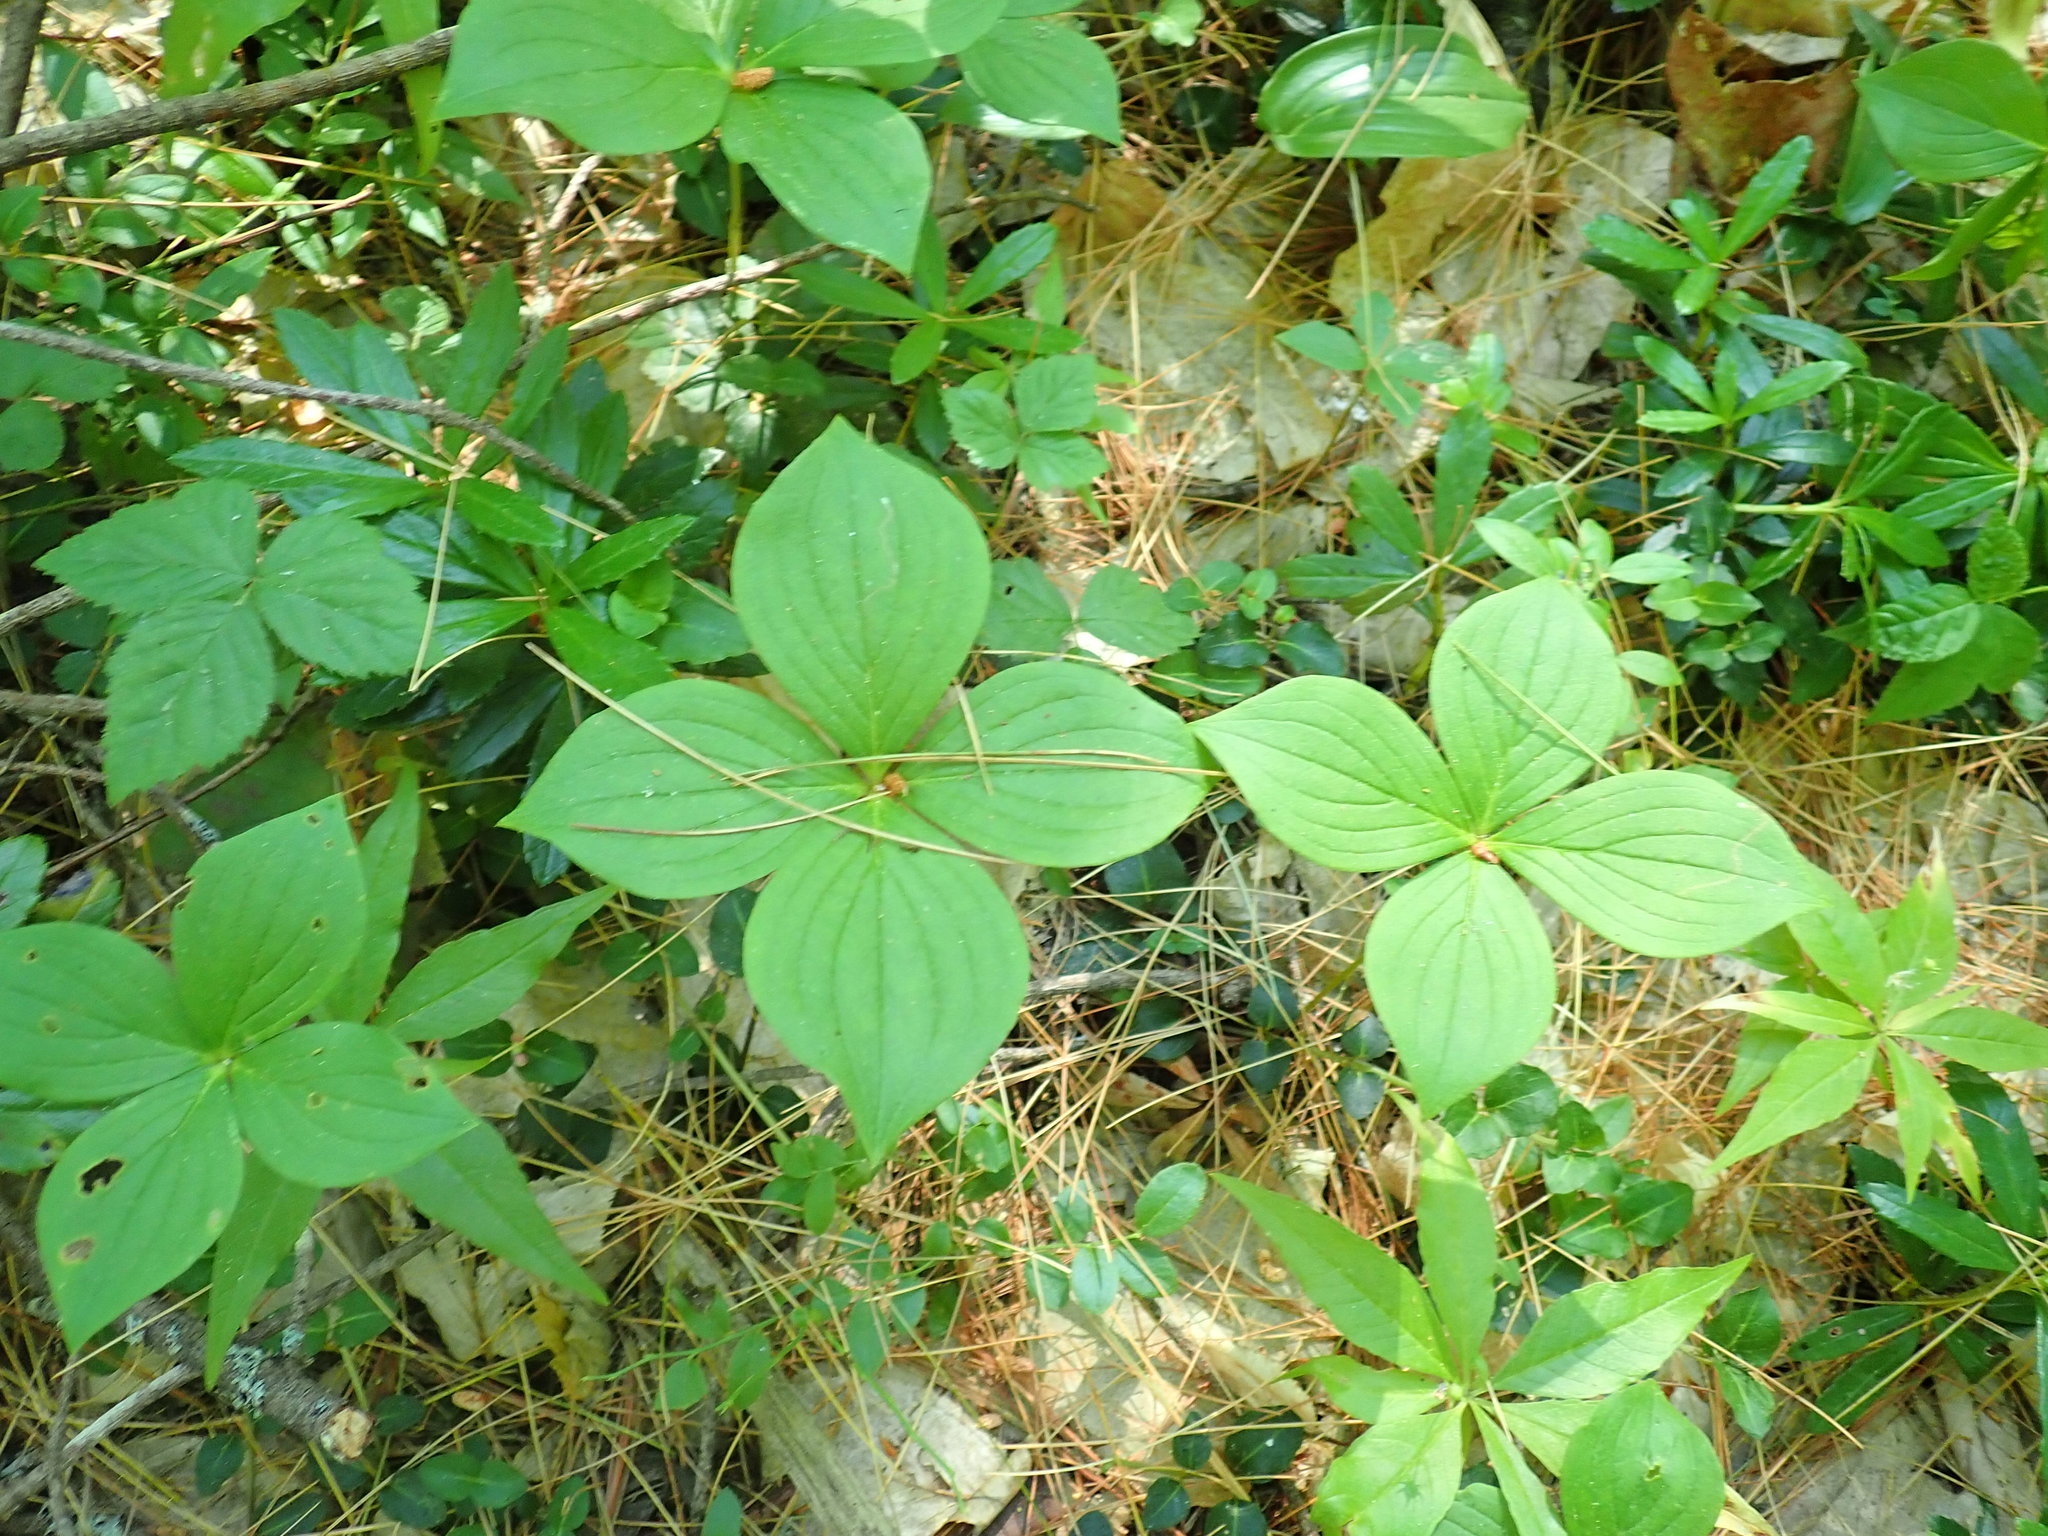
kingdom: Plantae
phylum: Tracheophyta
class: Magnoliopsida
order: Cornales
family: Cornaceae
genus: Cornus
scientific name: Cornus canadensis
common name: Creeping dogwood
